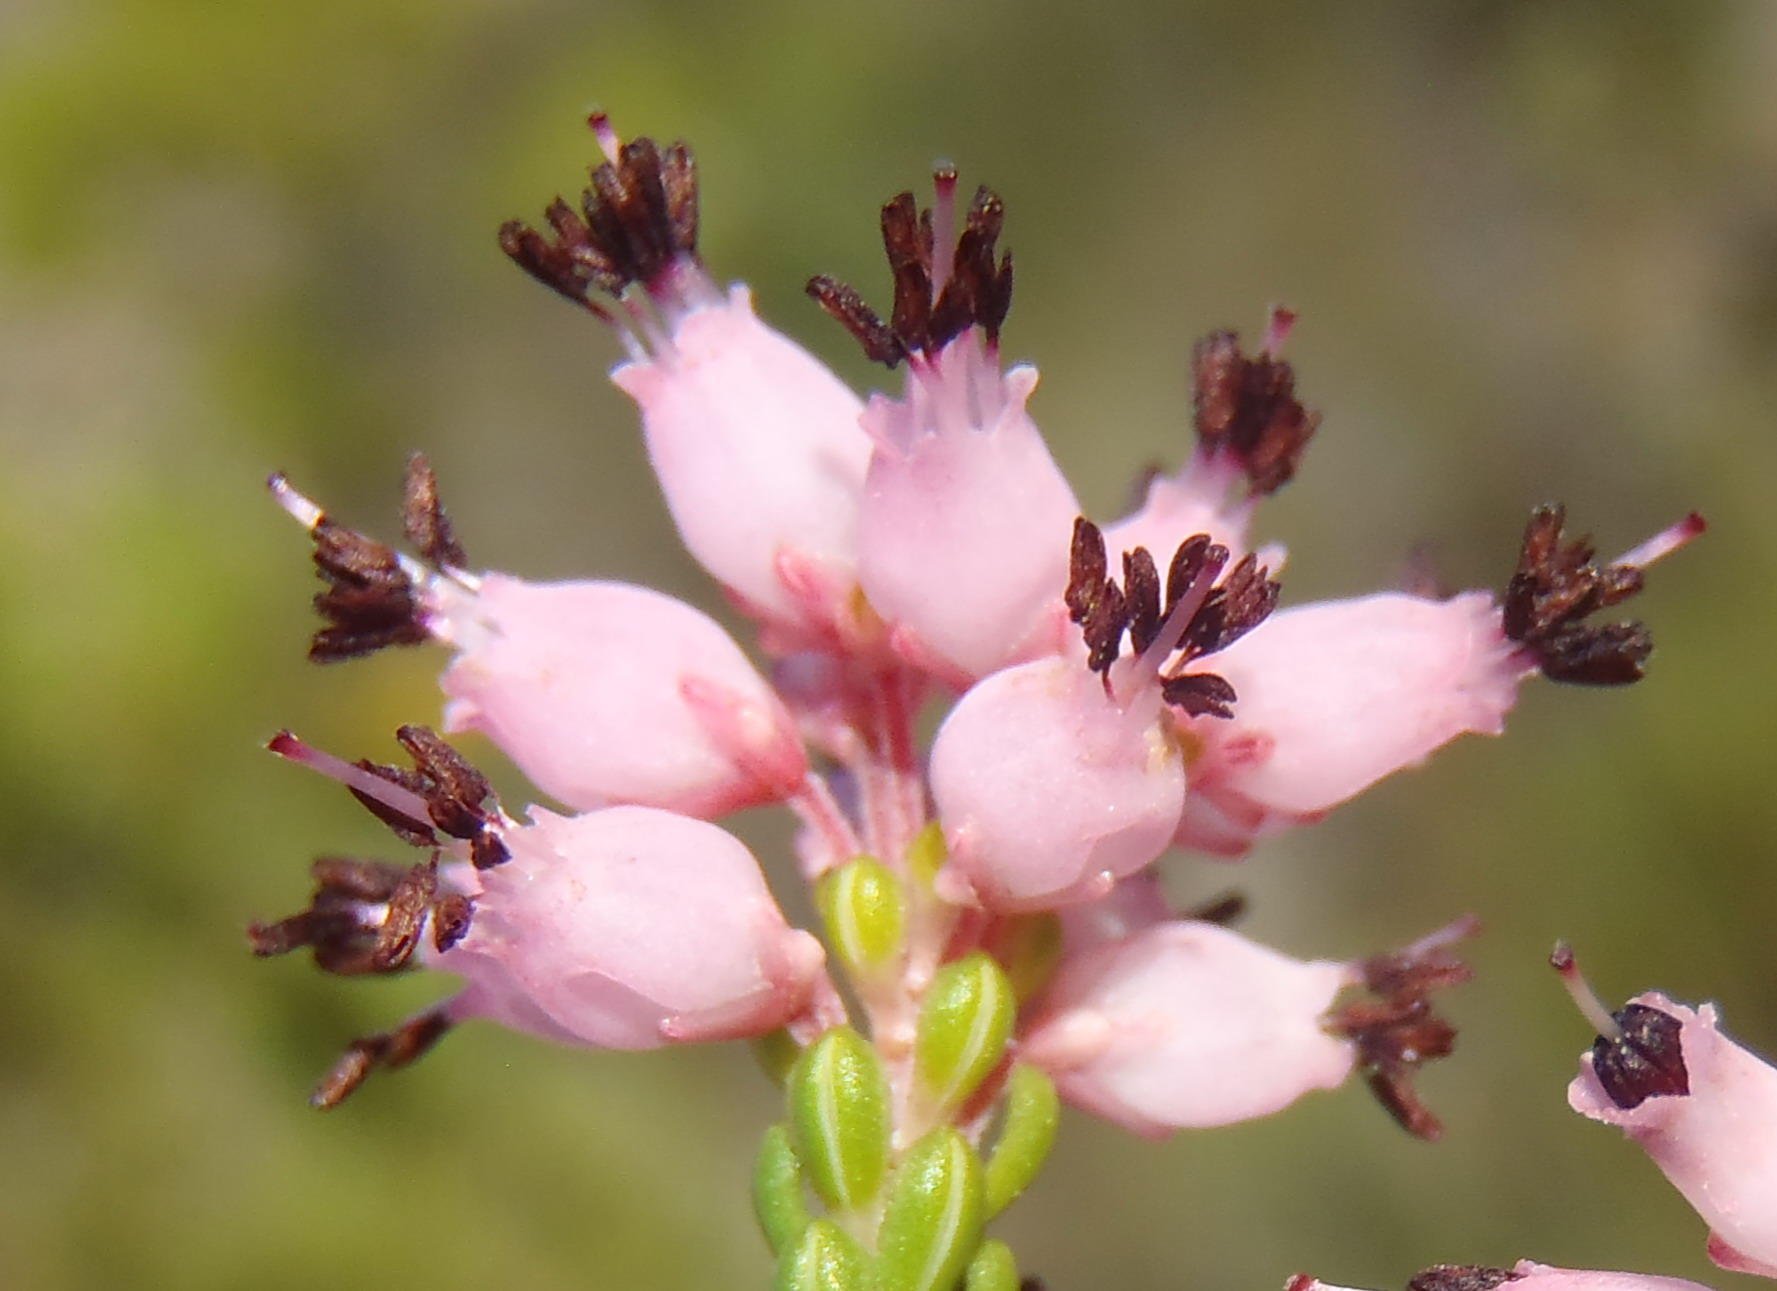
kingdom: Plantae
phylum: Tracheophyta
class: Magnoliopsida
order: Ericales
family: Ericaceae
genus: Erica
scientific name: Erica petraea
